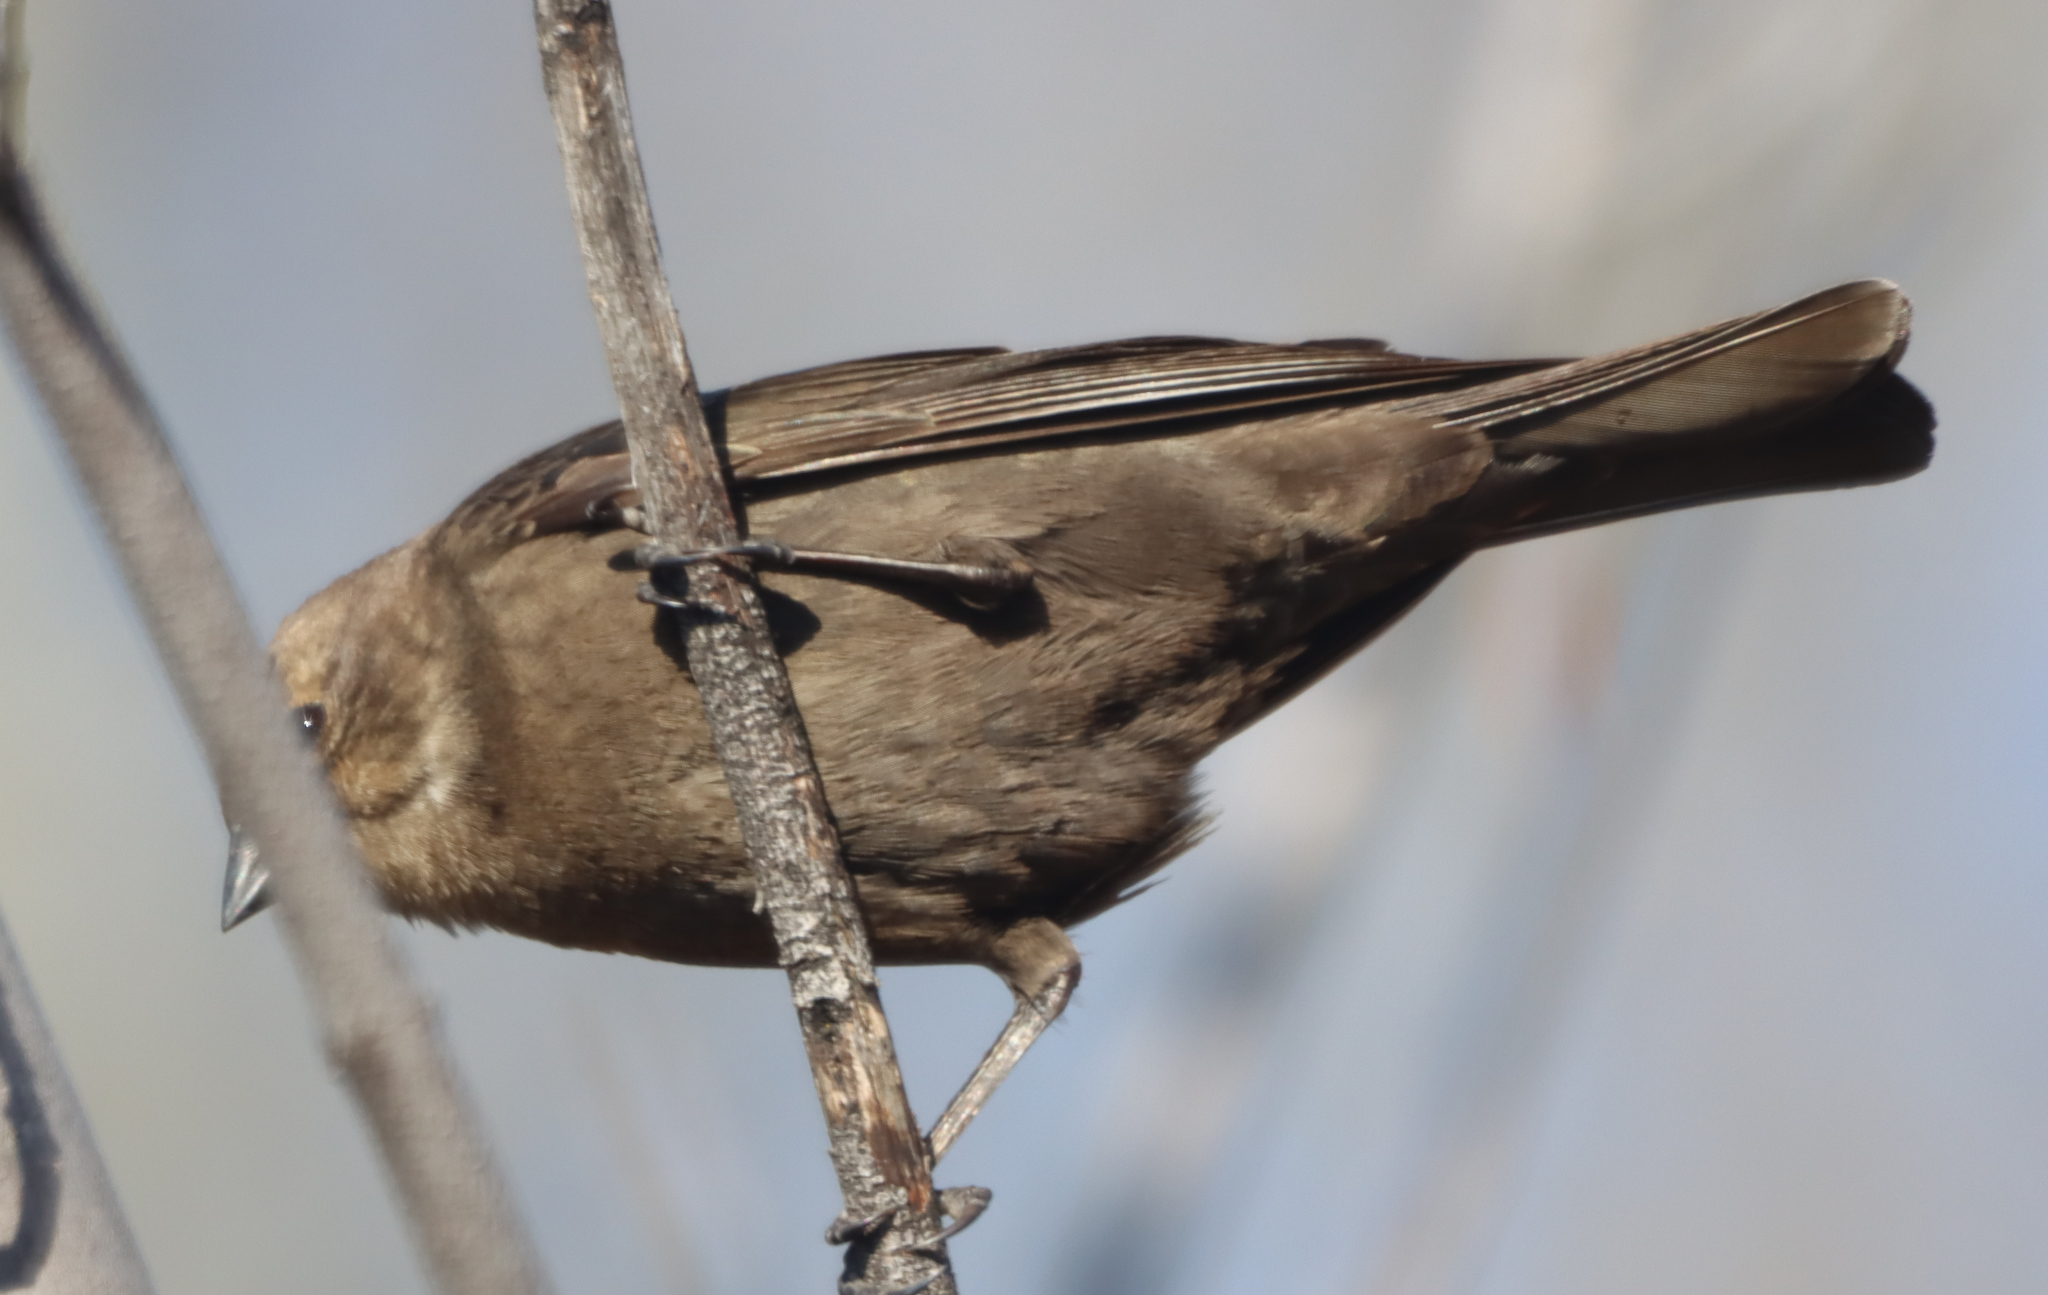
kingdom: Animalia
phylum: Chordata
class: Aves
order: Passeriformes
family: Icteridae
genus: Molothrus
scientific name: Molothrus ater
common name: Brown-headed cowbird
